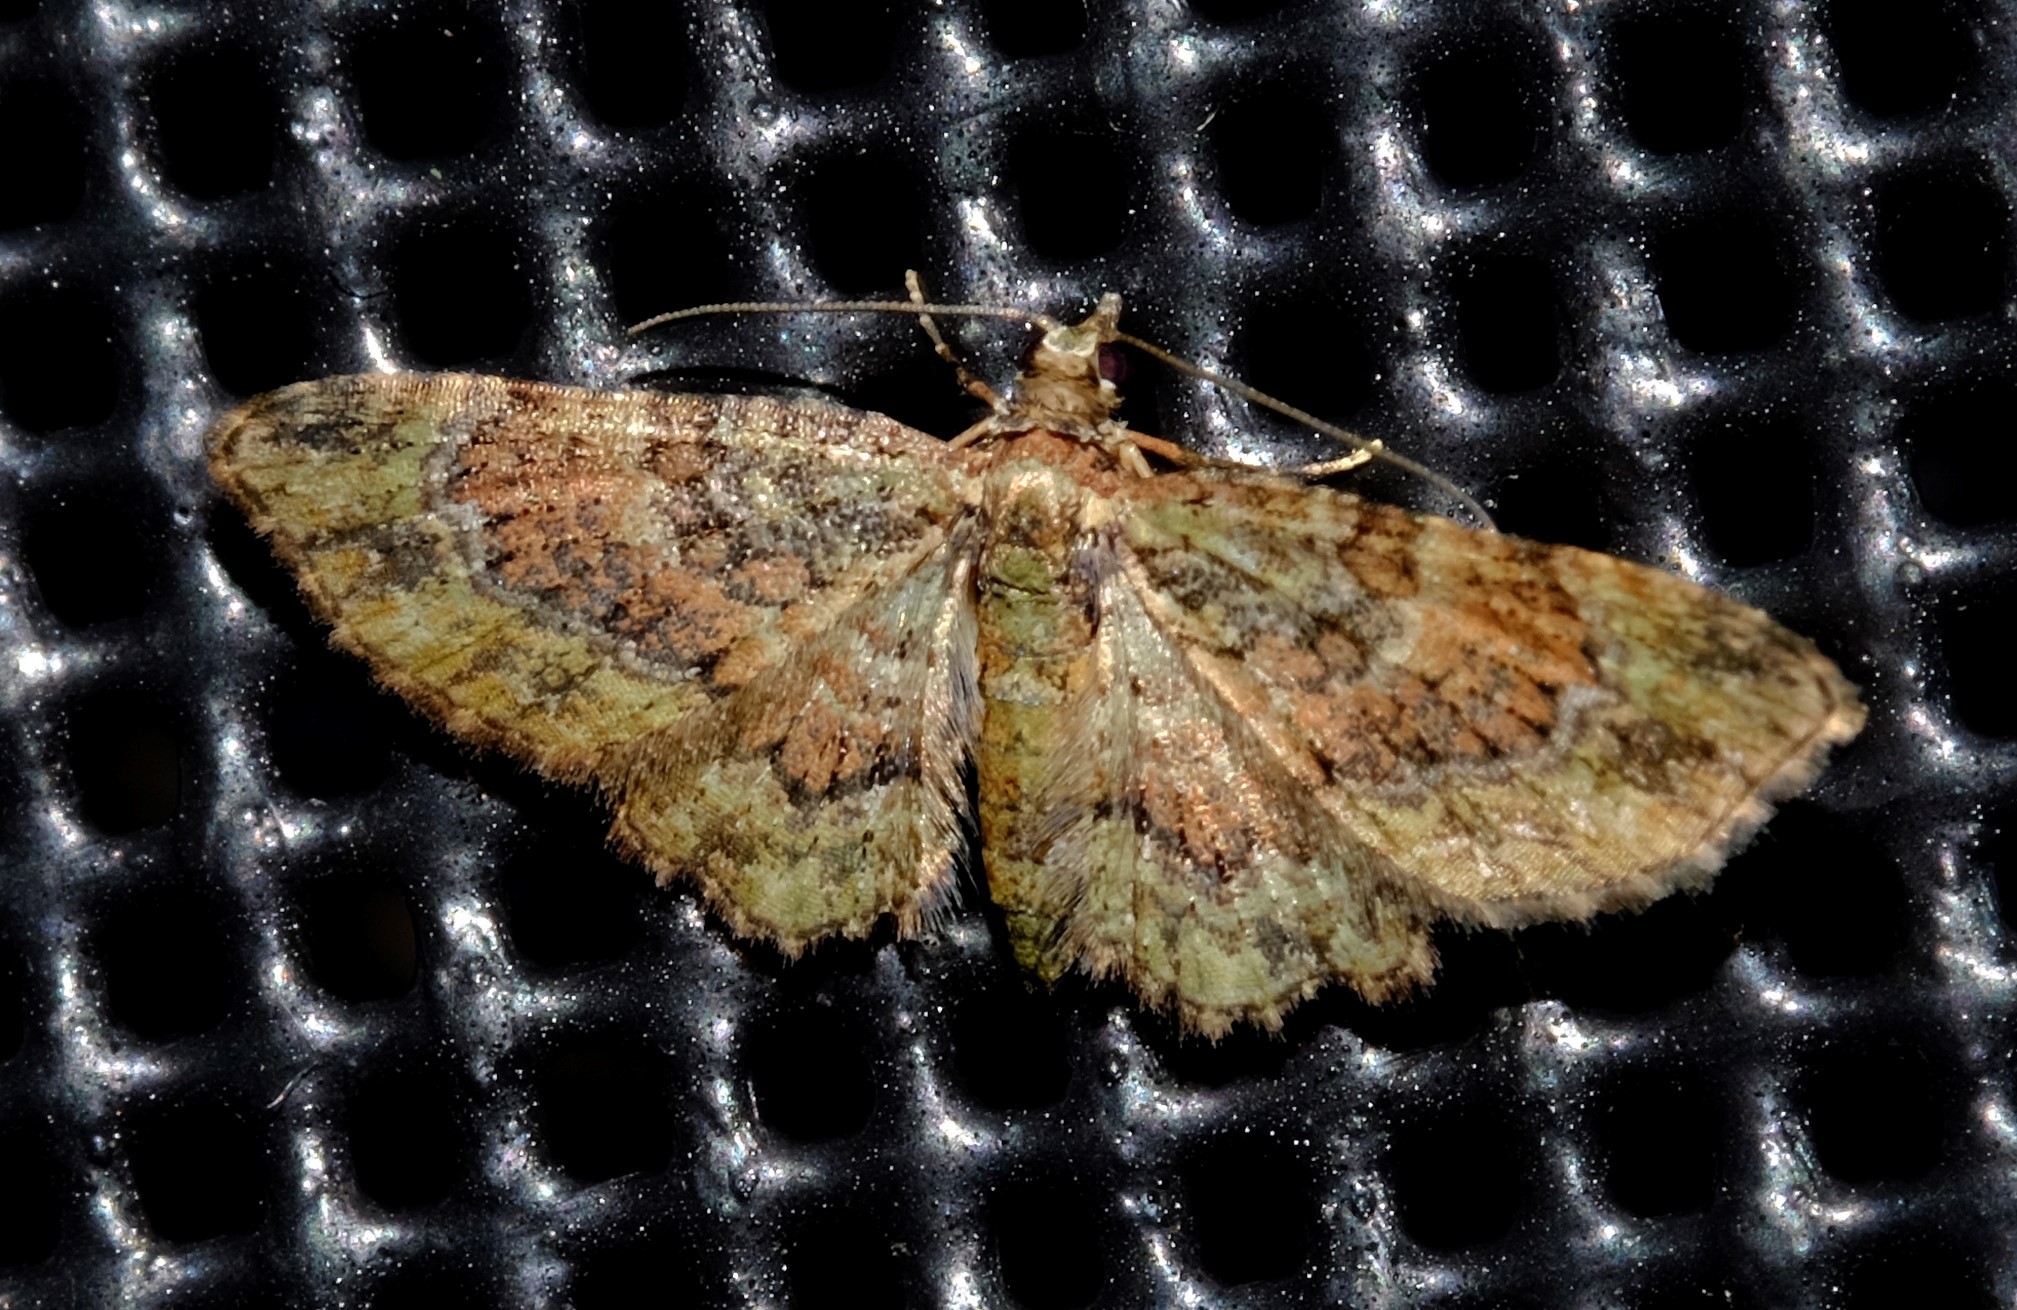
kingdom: Animalia
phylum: Arthropoda
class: Insecta
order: Lepidoptera
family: Geometridae
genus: Chloroclystis
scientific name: Chloroclystis catastreptes
